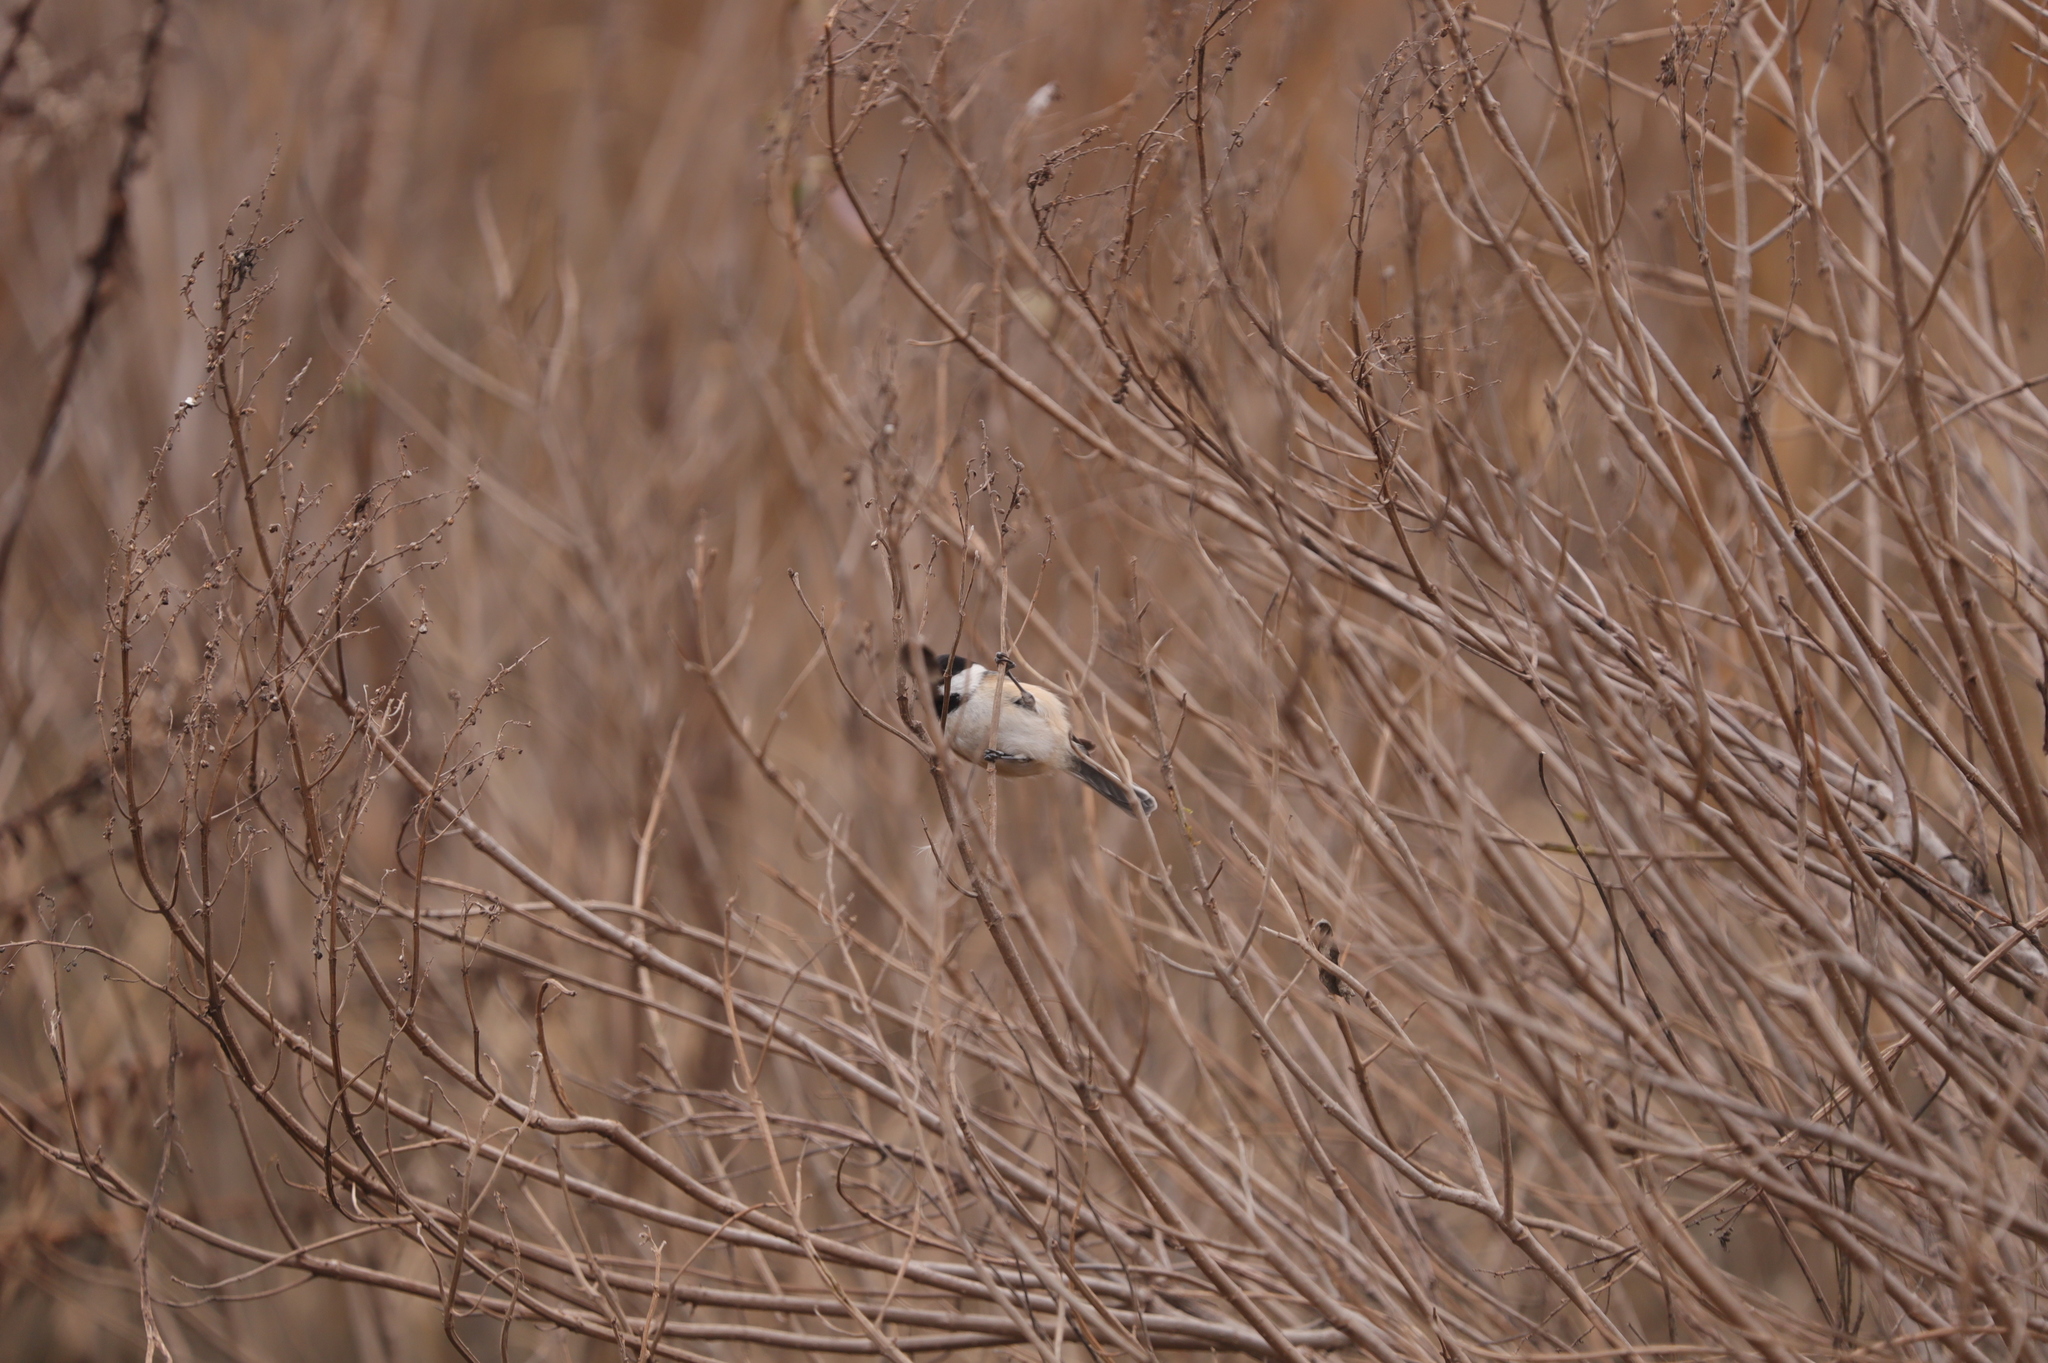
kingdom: Animalia
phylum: Chordata
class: Aves
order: Passeriformes
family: Paridae
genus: Poecile
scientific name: Poecile atricapillus
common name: Black-capped chickadee
